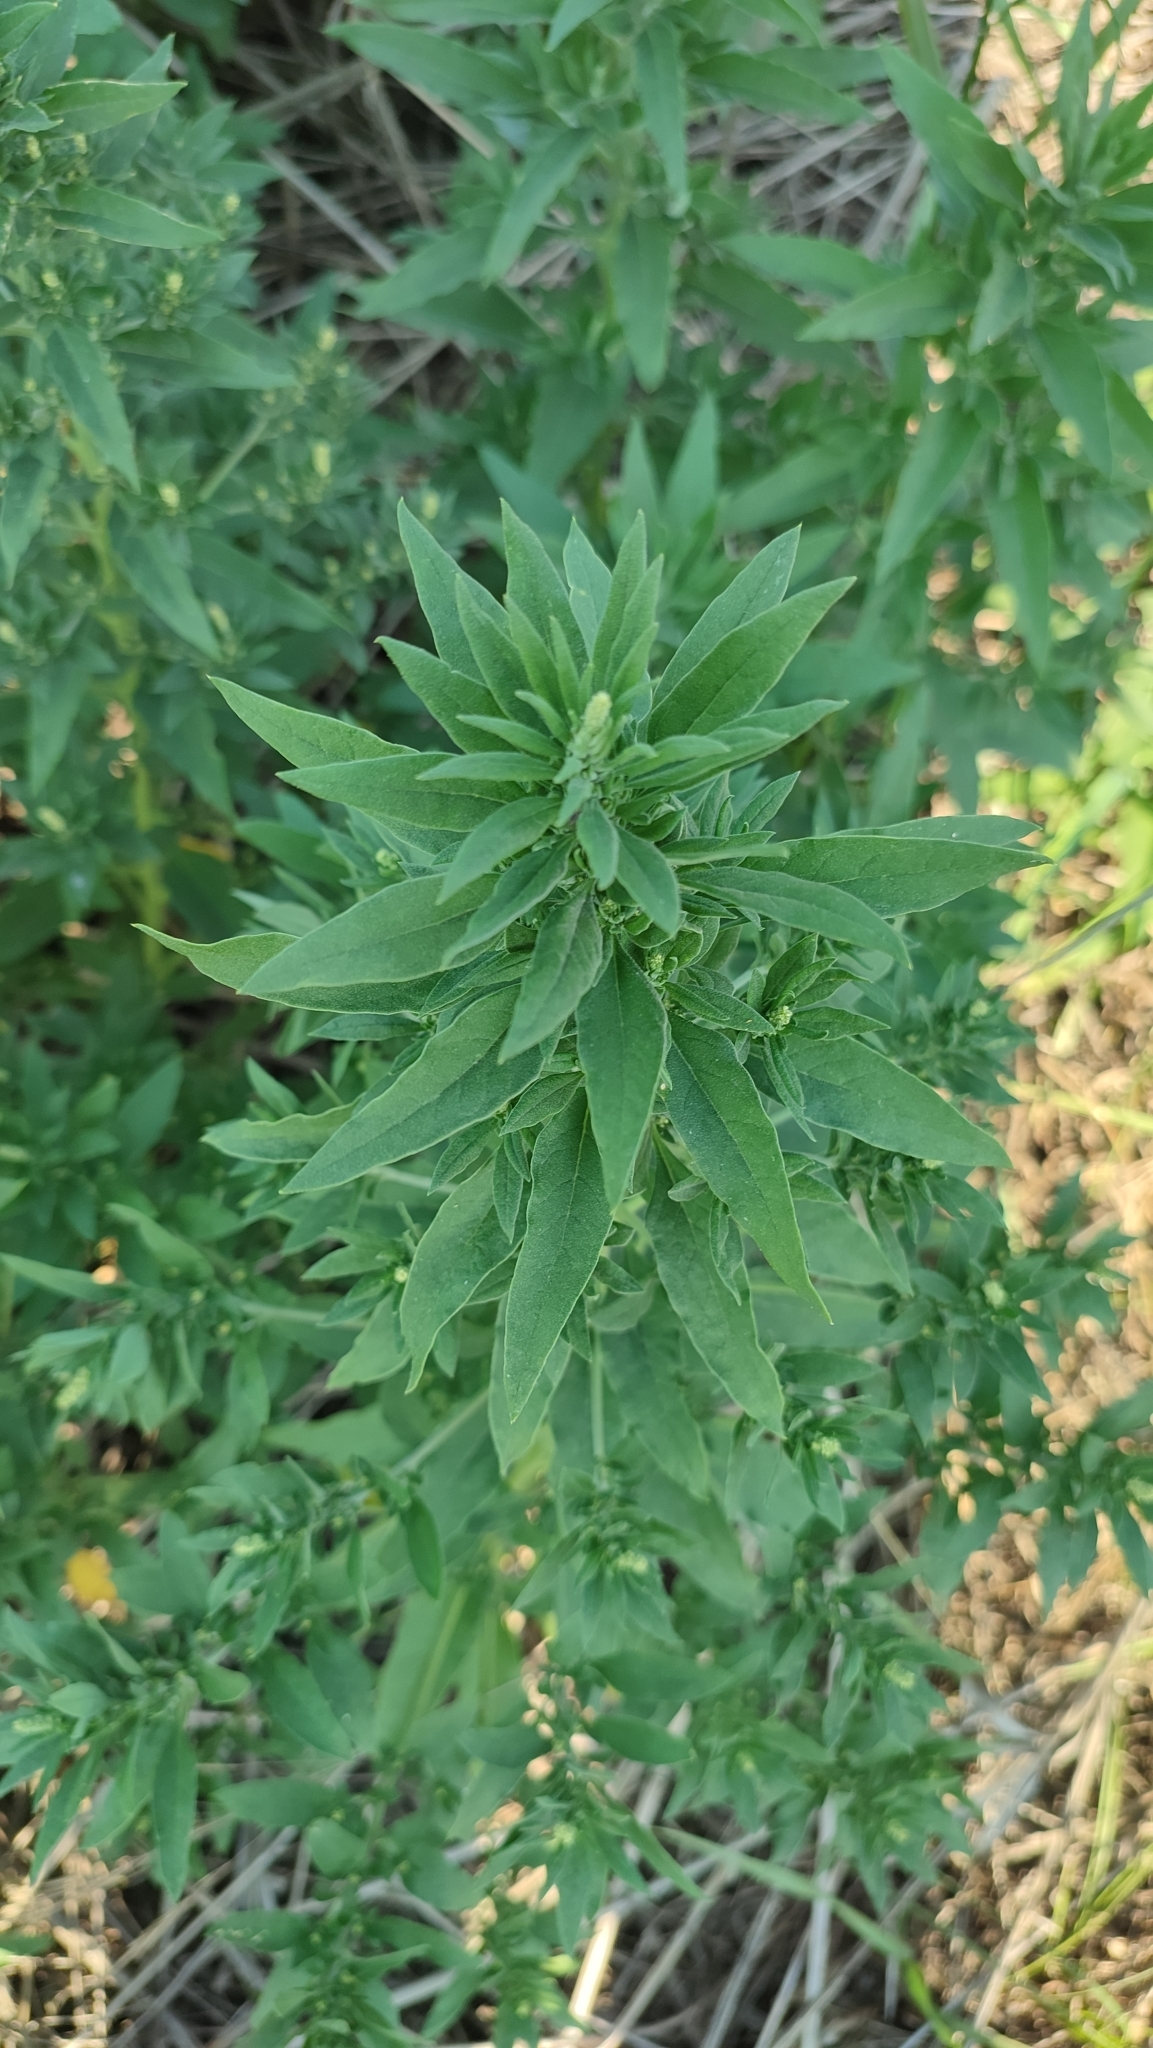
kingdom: Plantae
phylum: Tracheophyta
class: Magnoliopsida
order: Caryophyllales
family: Amaranthaceae
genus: Axyris
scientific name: Axyris amaranthoides
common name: Russian pigweed
